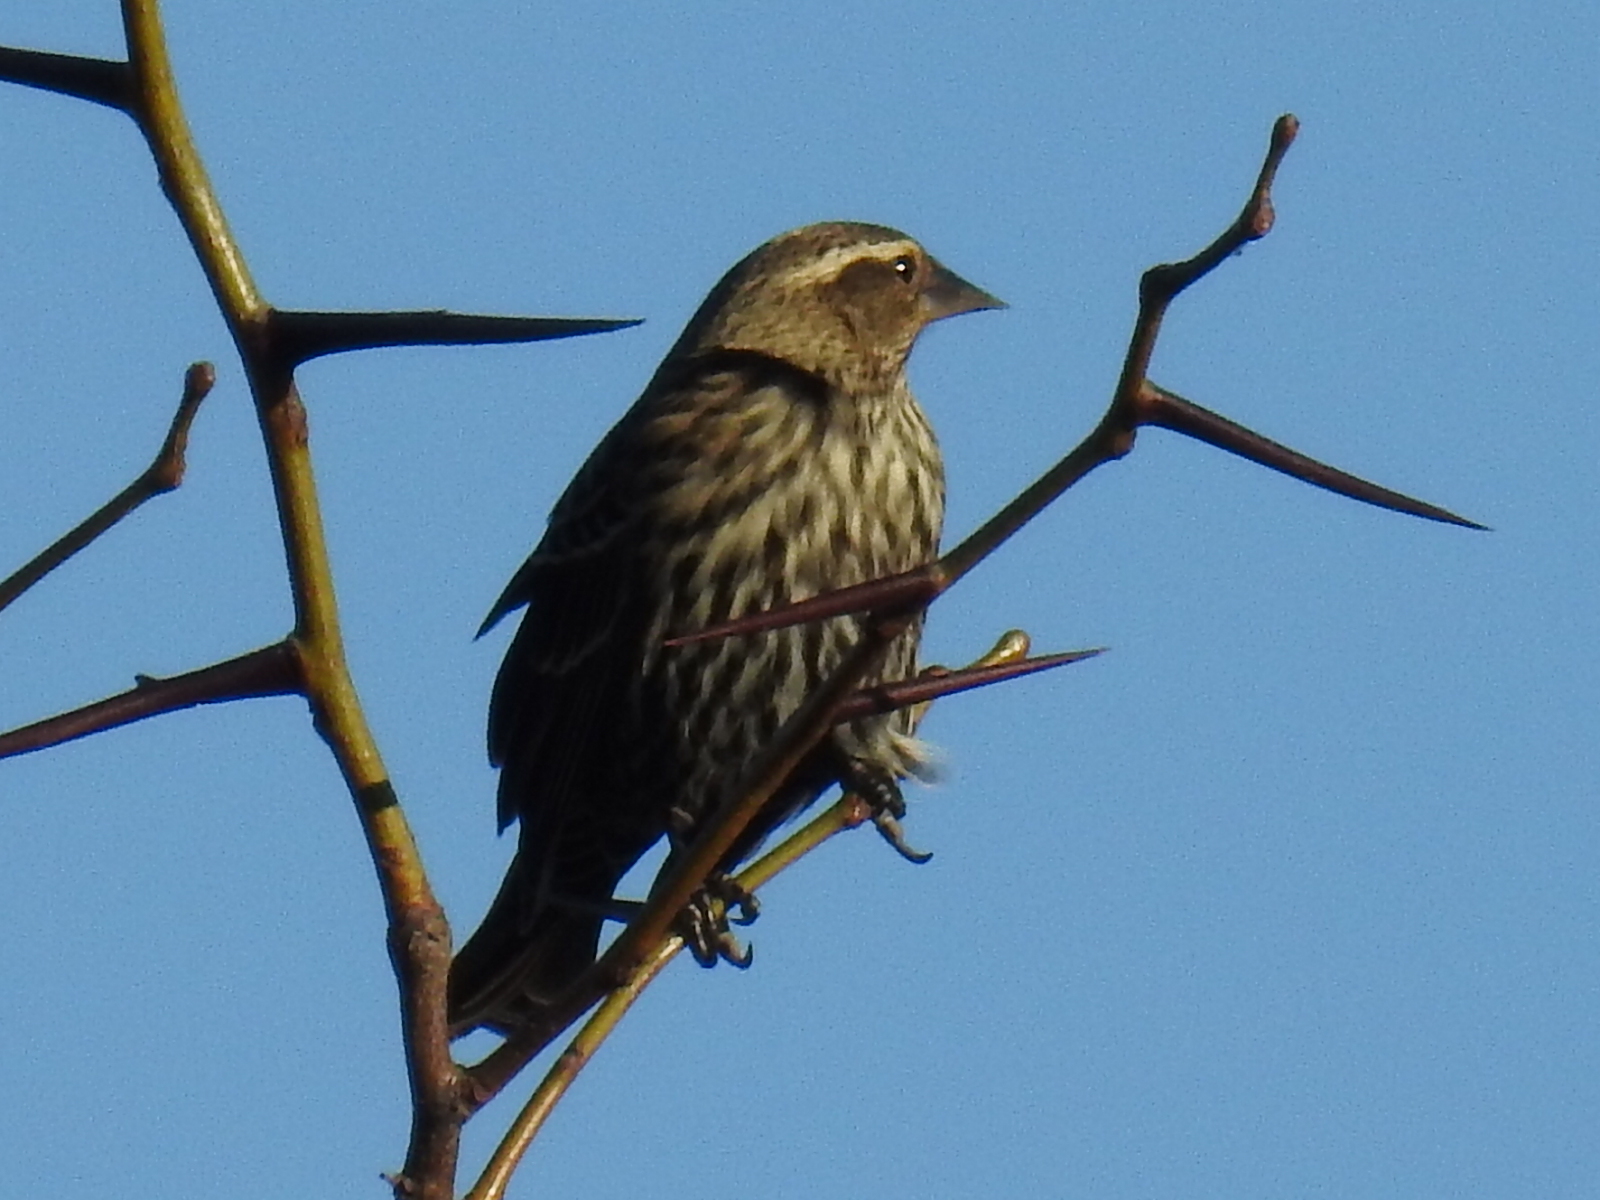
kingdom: Animalia
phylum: Chordata
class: Aves
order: Passeriformes
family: Icteridae
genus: Agelaius
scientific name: Agelaius phoeniceus
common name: Red-winged blackbird
